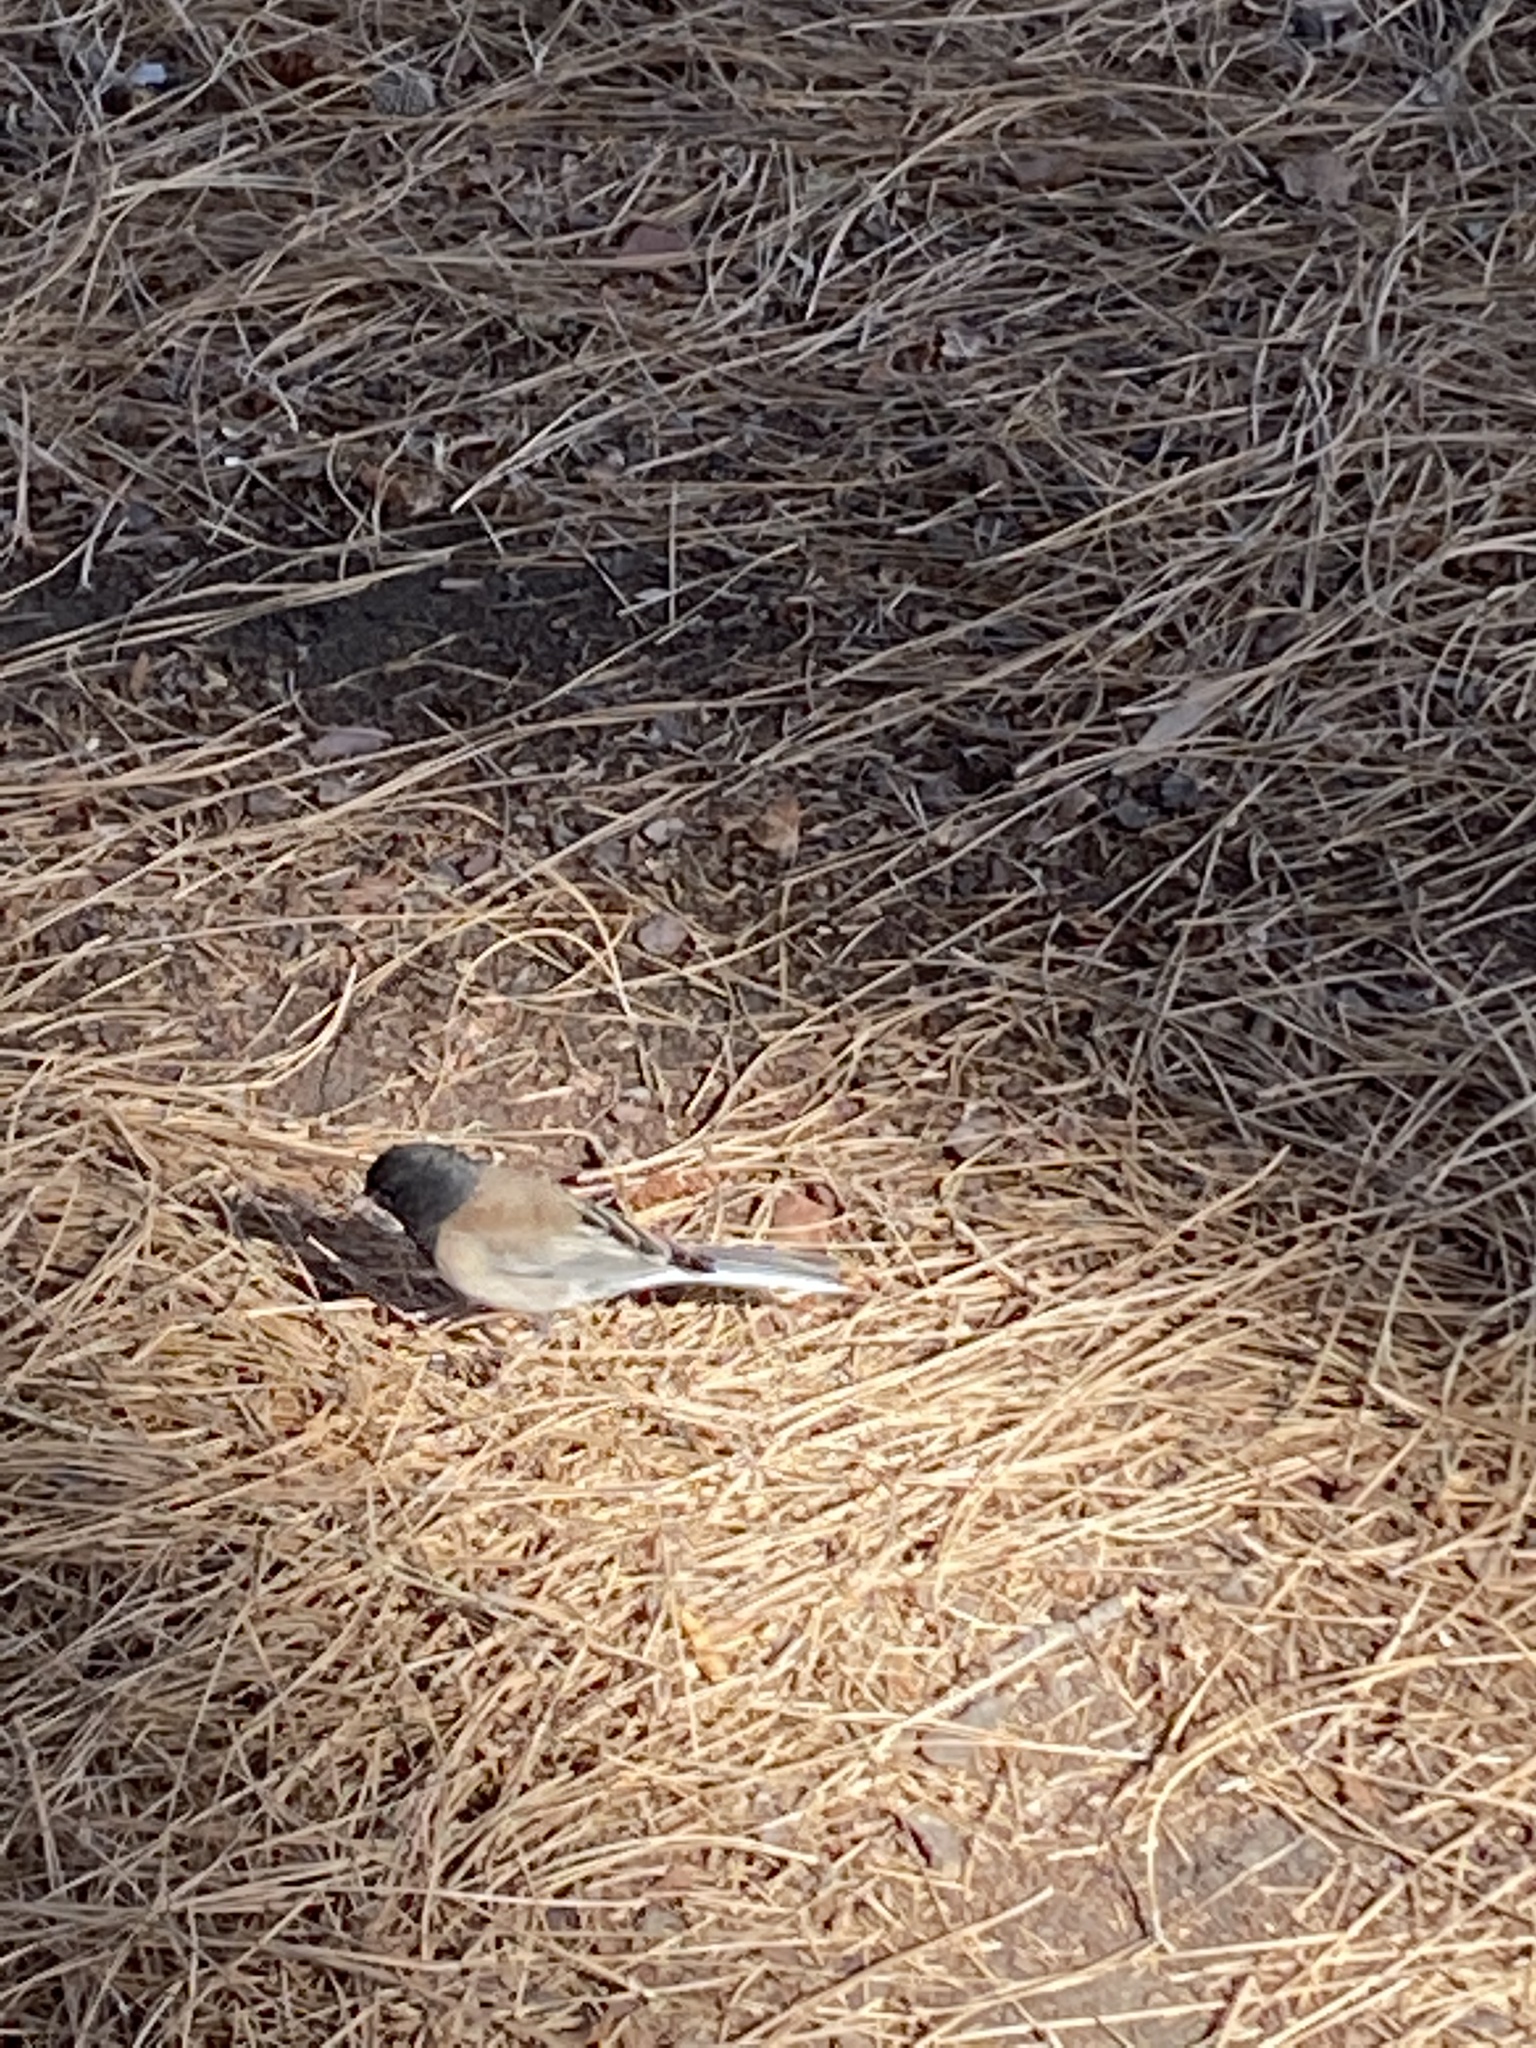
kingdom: Animalia
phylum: Chordata
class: Aves
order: Passeriformes
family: Passerellidae
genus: Junco
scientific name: Junco hyemalis
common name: Dark-eyed junco
